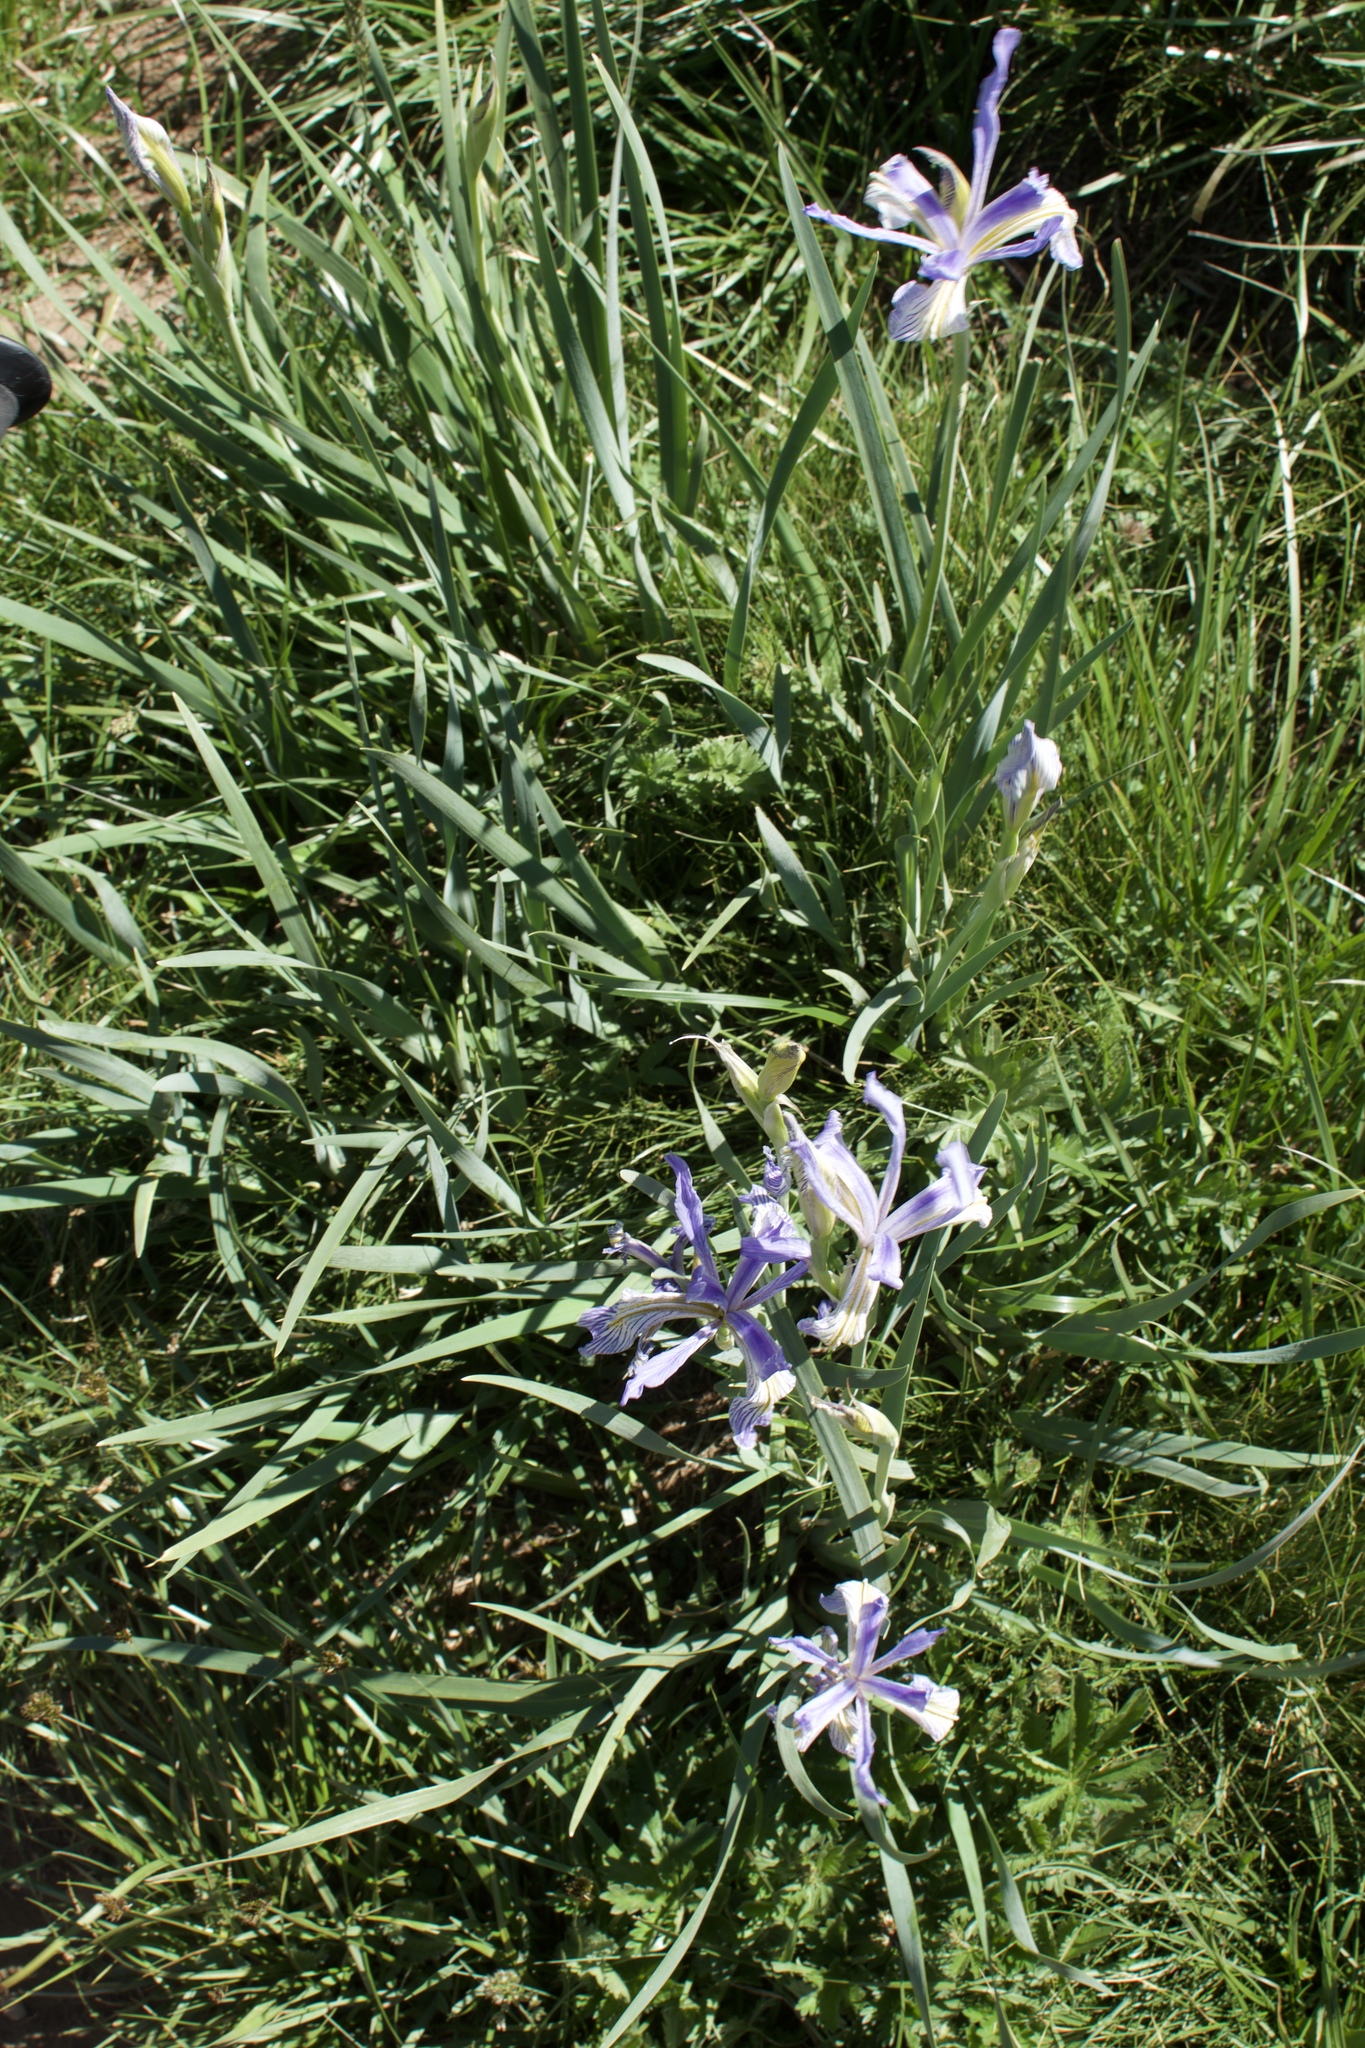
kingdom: Plantae
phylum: Tracheophyta
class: Liliopsida
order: Asparagales
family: Iridaceae
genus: Iris
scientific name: Iris missouriensis
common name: Rocky mountain iris
